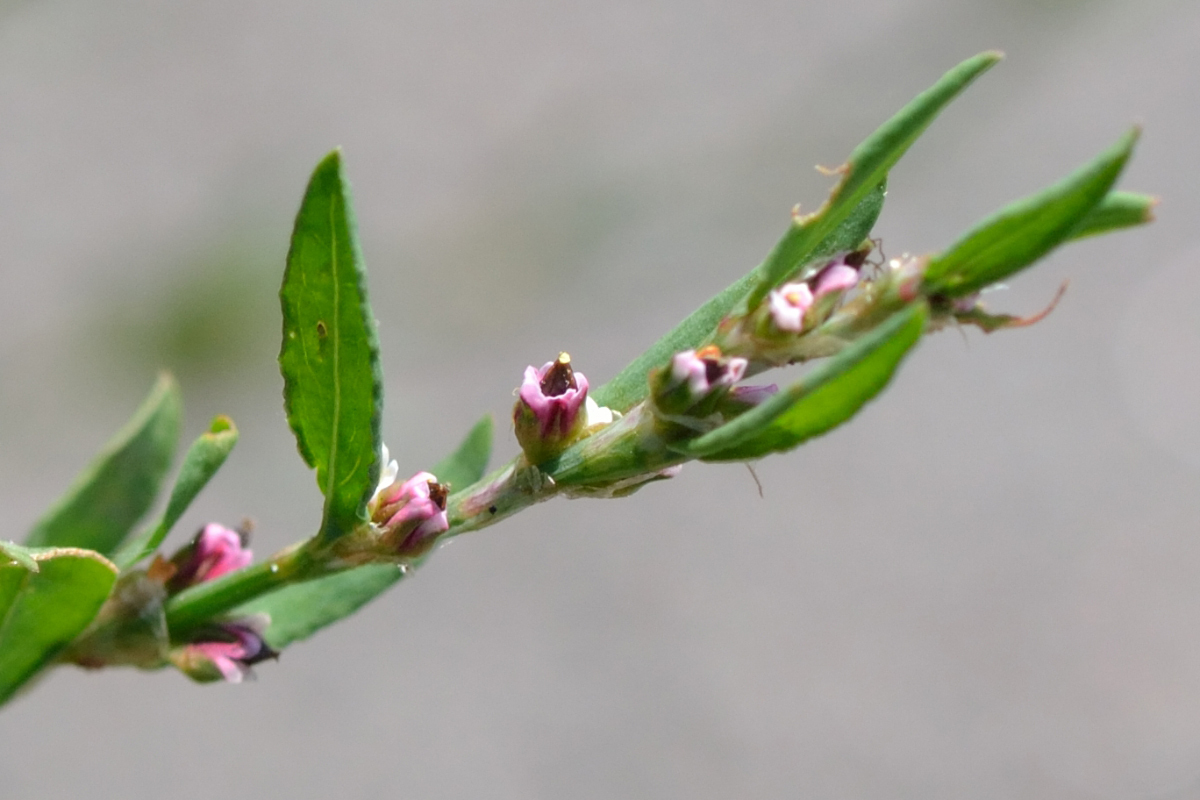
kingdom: Plantae
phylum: Tracheophyta
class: Magnoliopsida
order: Caryophyllales
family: Polygonaceae
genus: Polygonum
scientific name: Polygonum
